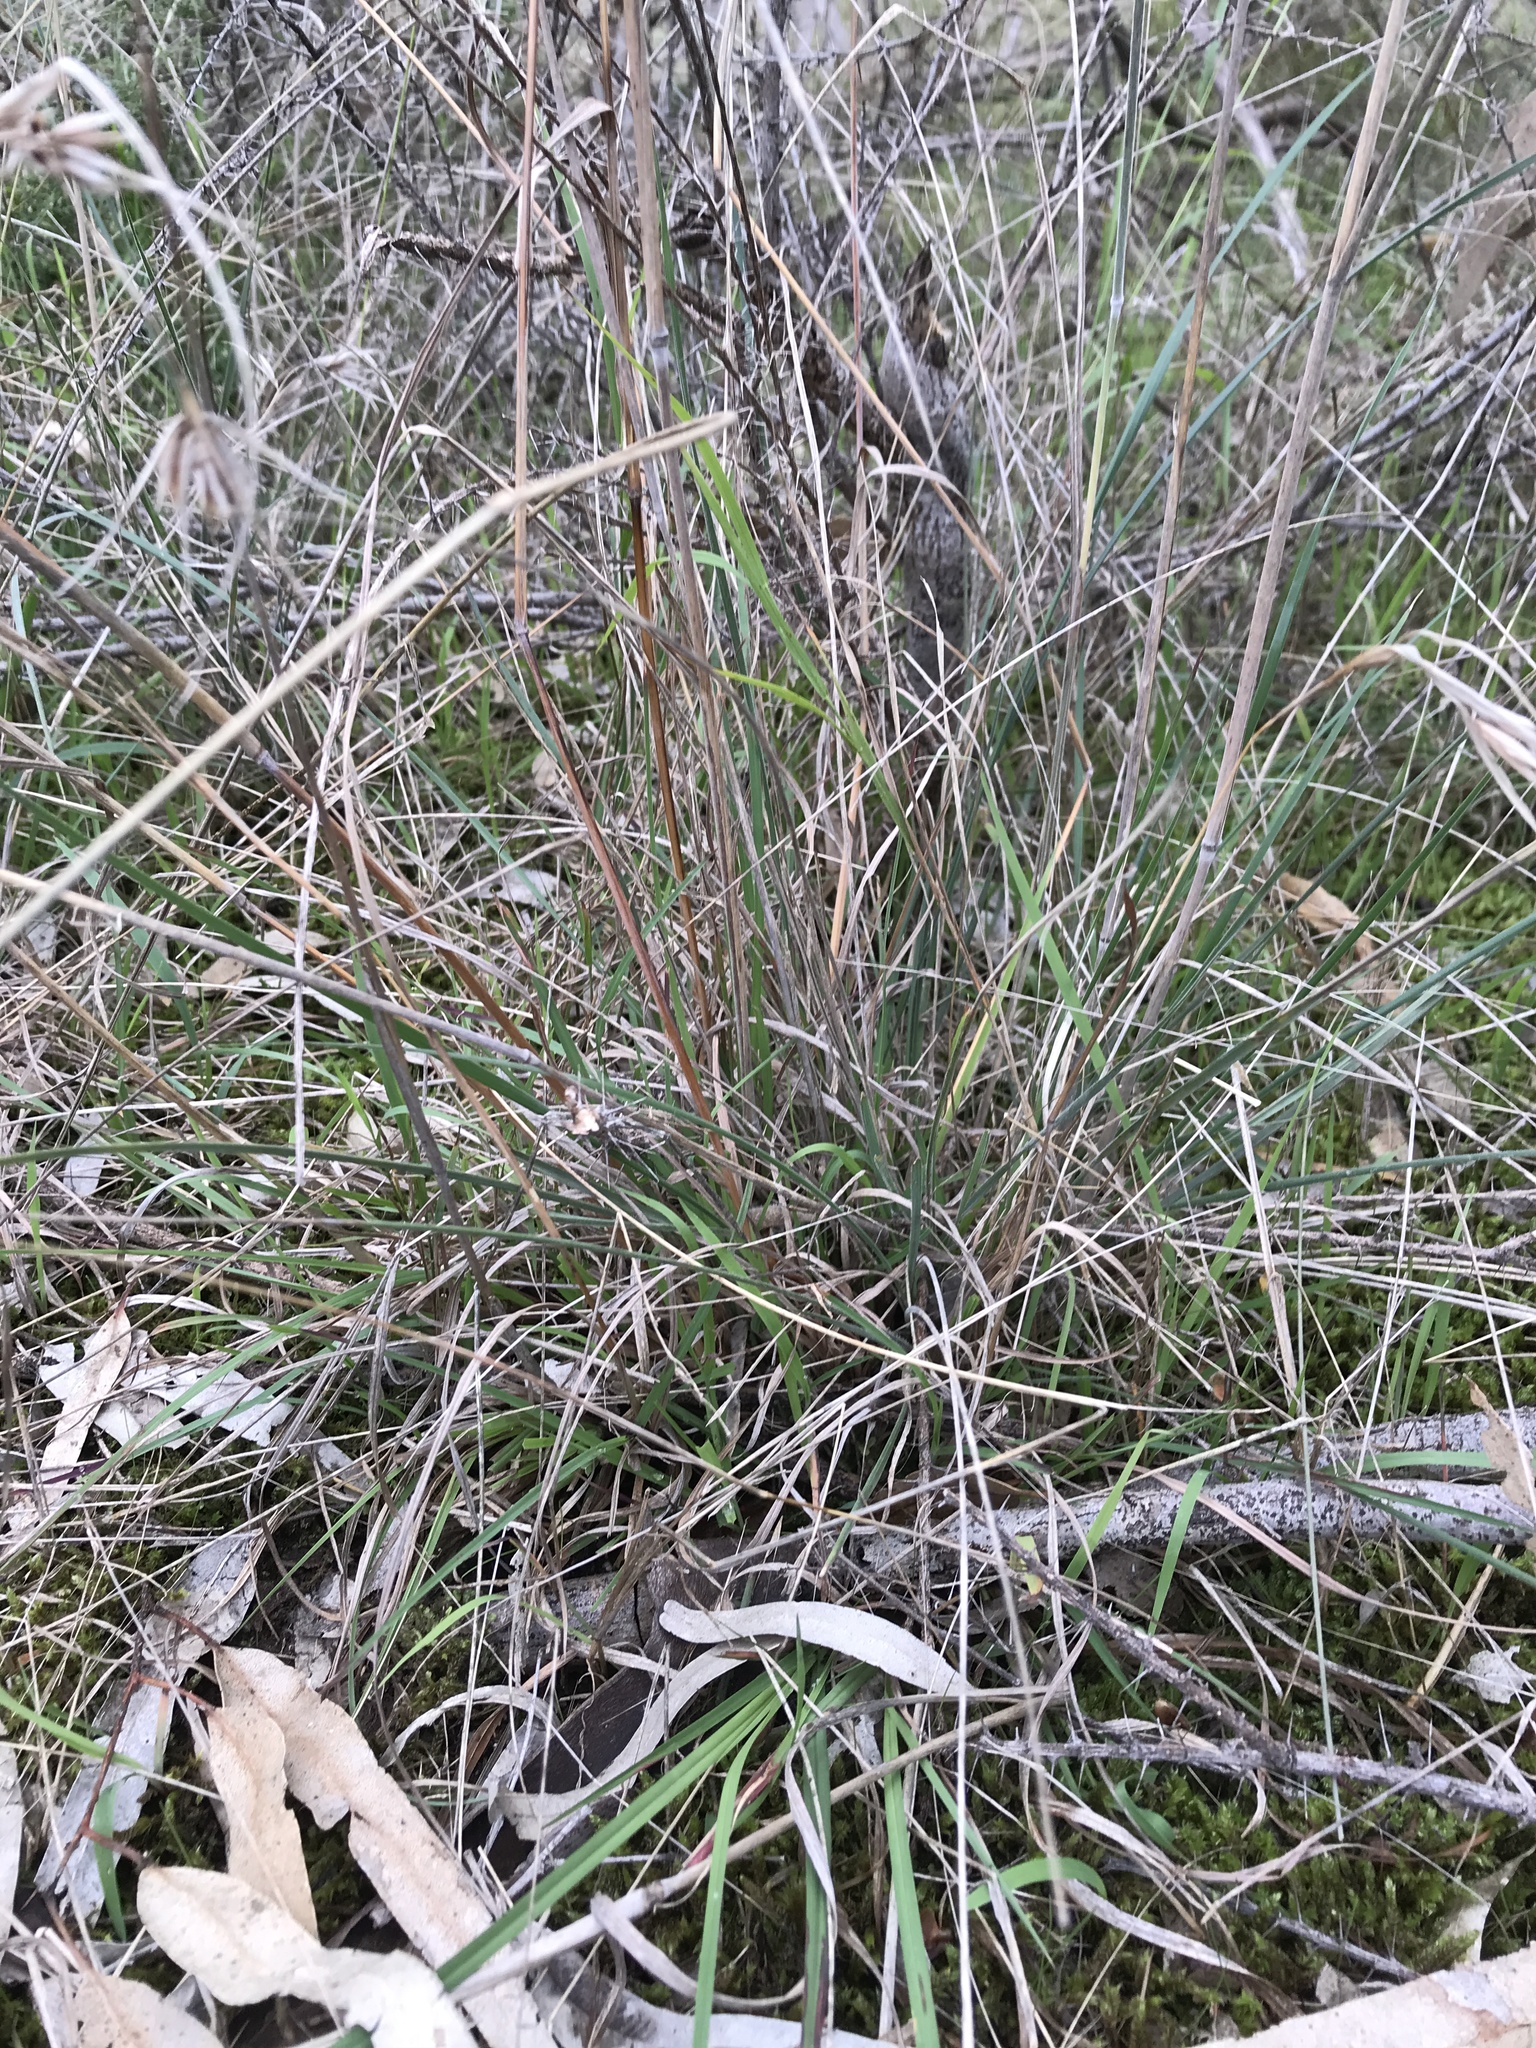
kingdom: Plantae
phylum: Tracheophyta
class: Liliopsida
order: Poales
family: Poaceae
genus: Themeda
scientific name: Themeda triandra
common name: Kangaroo grass
